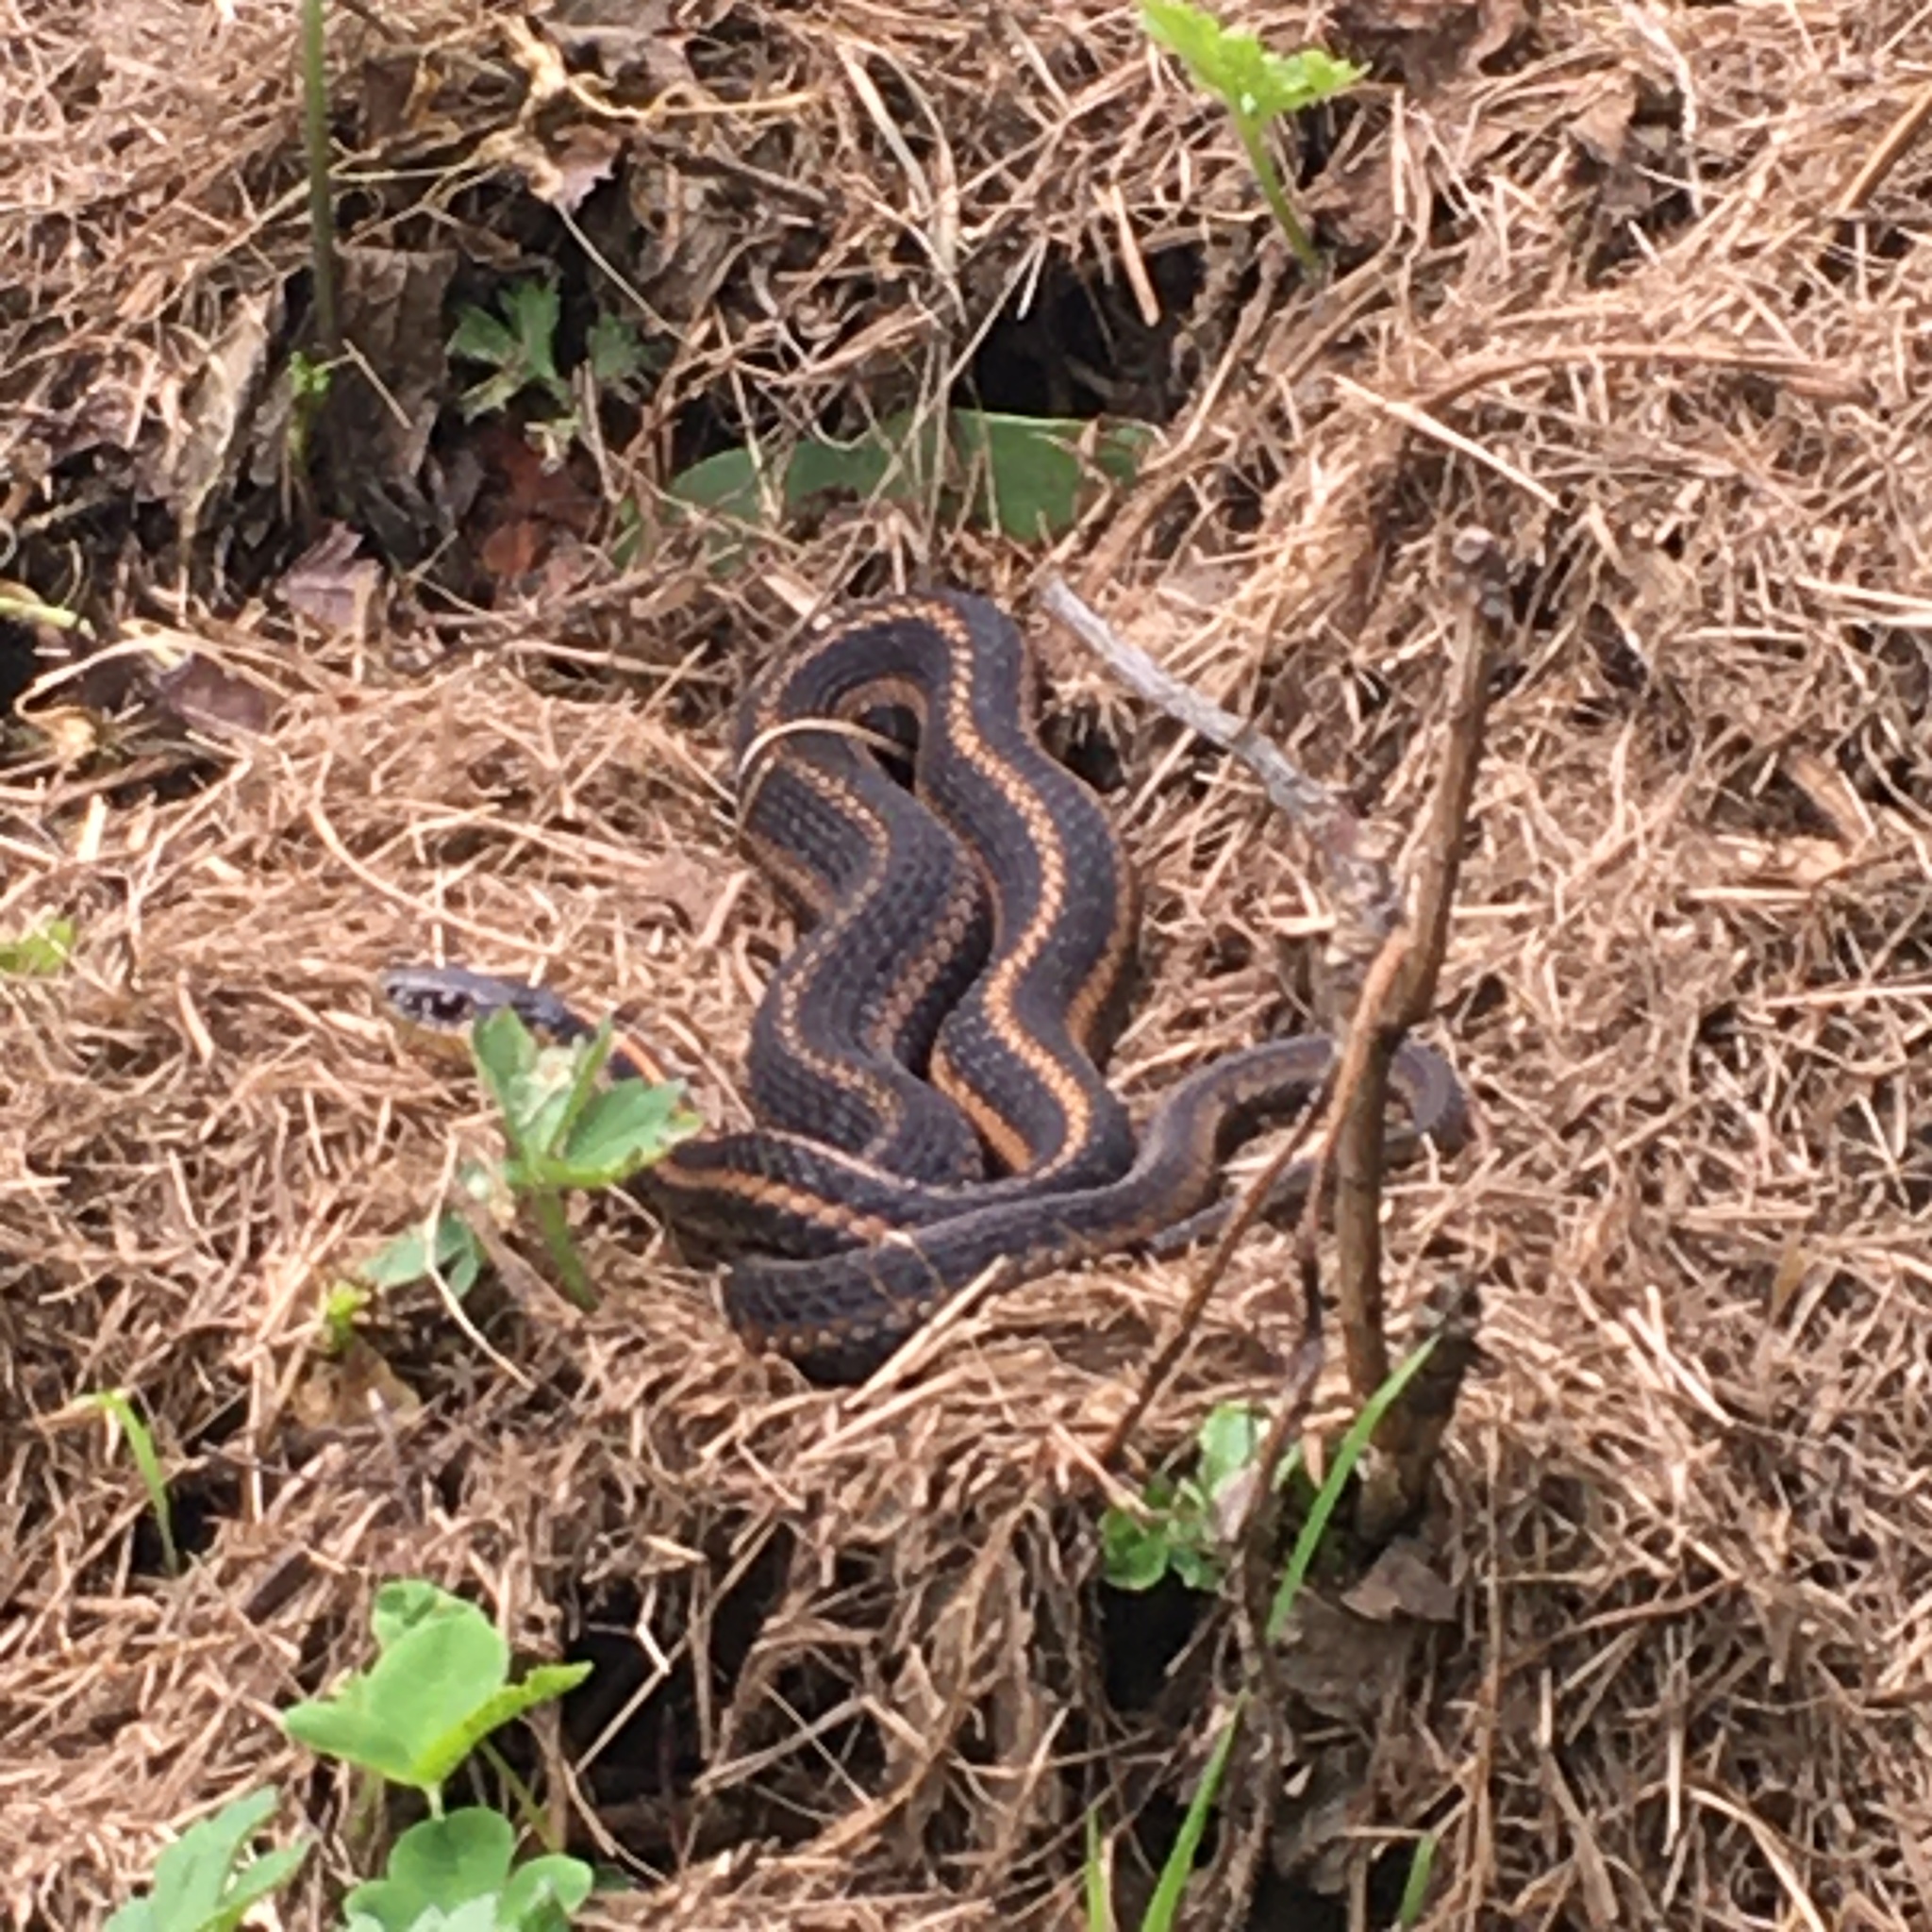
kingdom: Animalia
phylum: Chordata
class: Squamata
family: Colubridae
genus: Thamnophis
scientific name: Thamnophis ordinoides
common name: Northwestern garter snake
